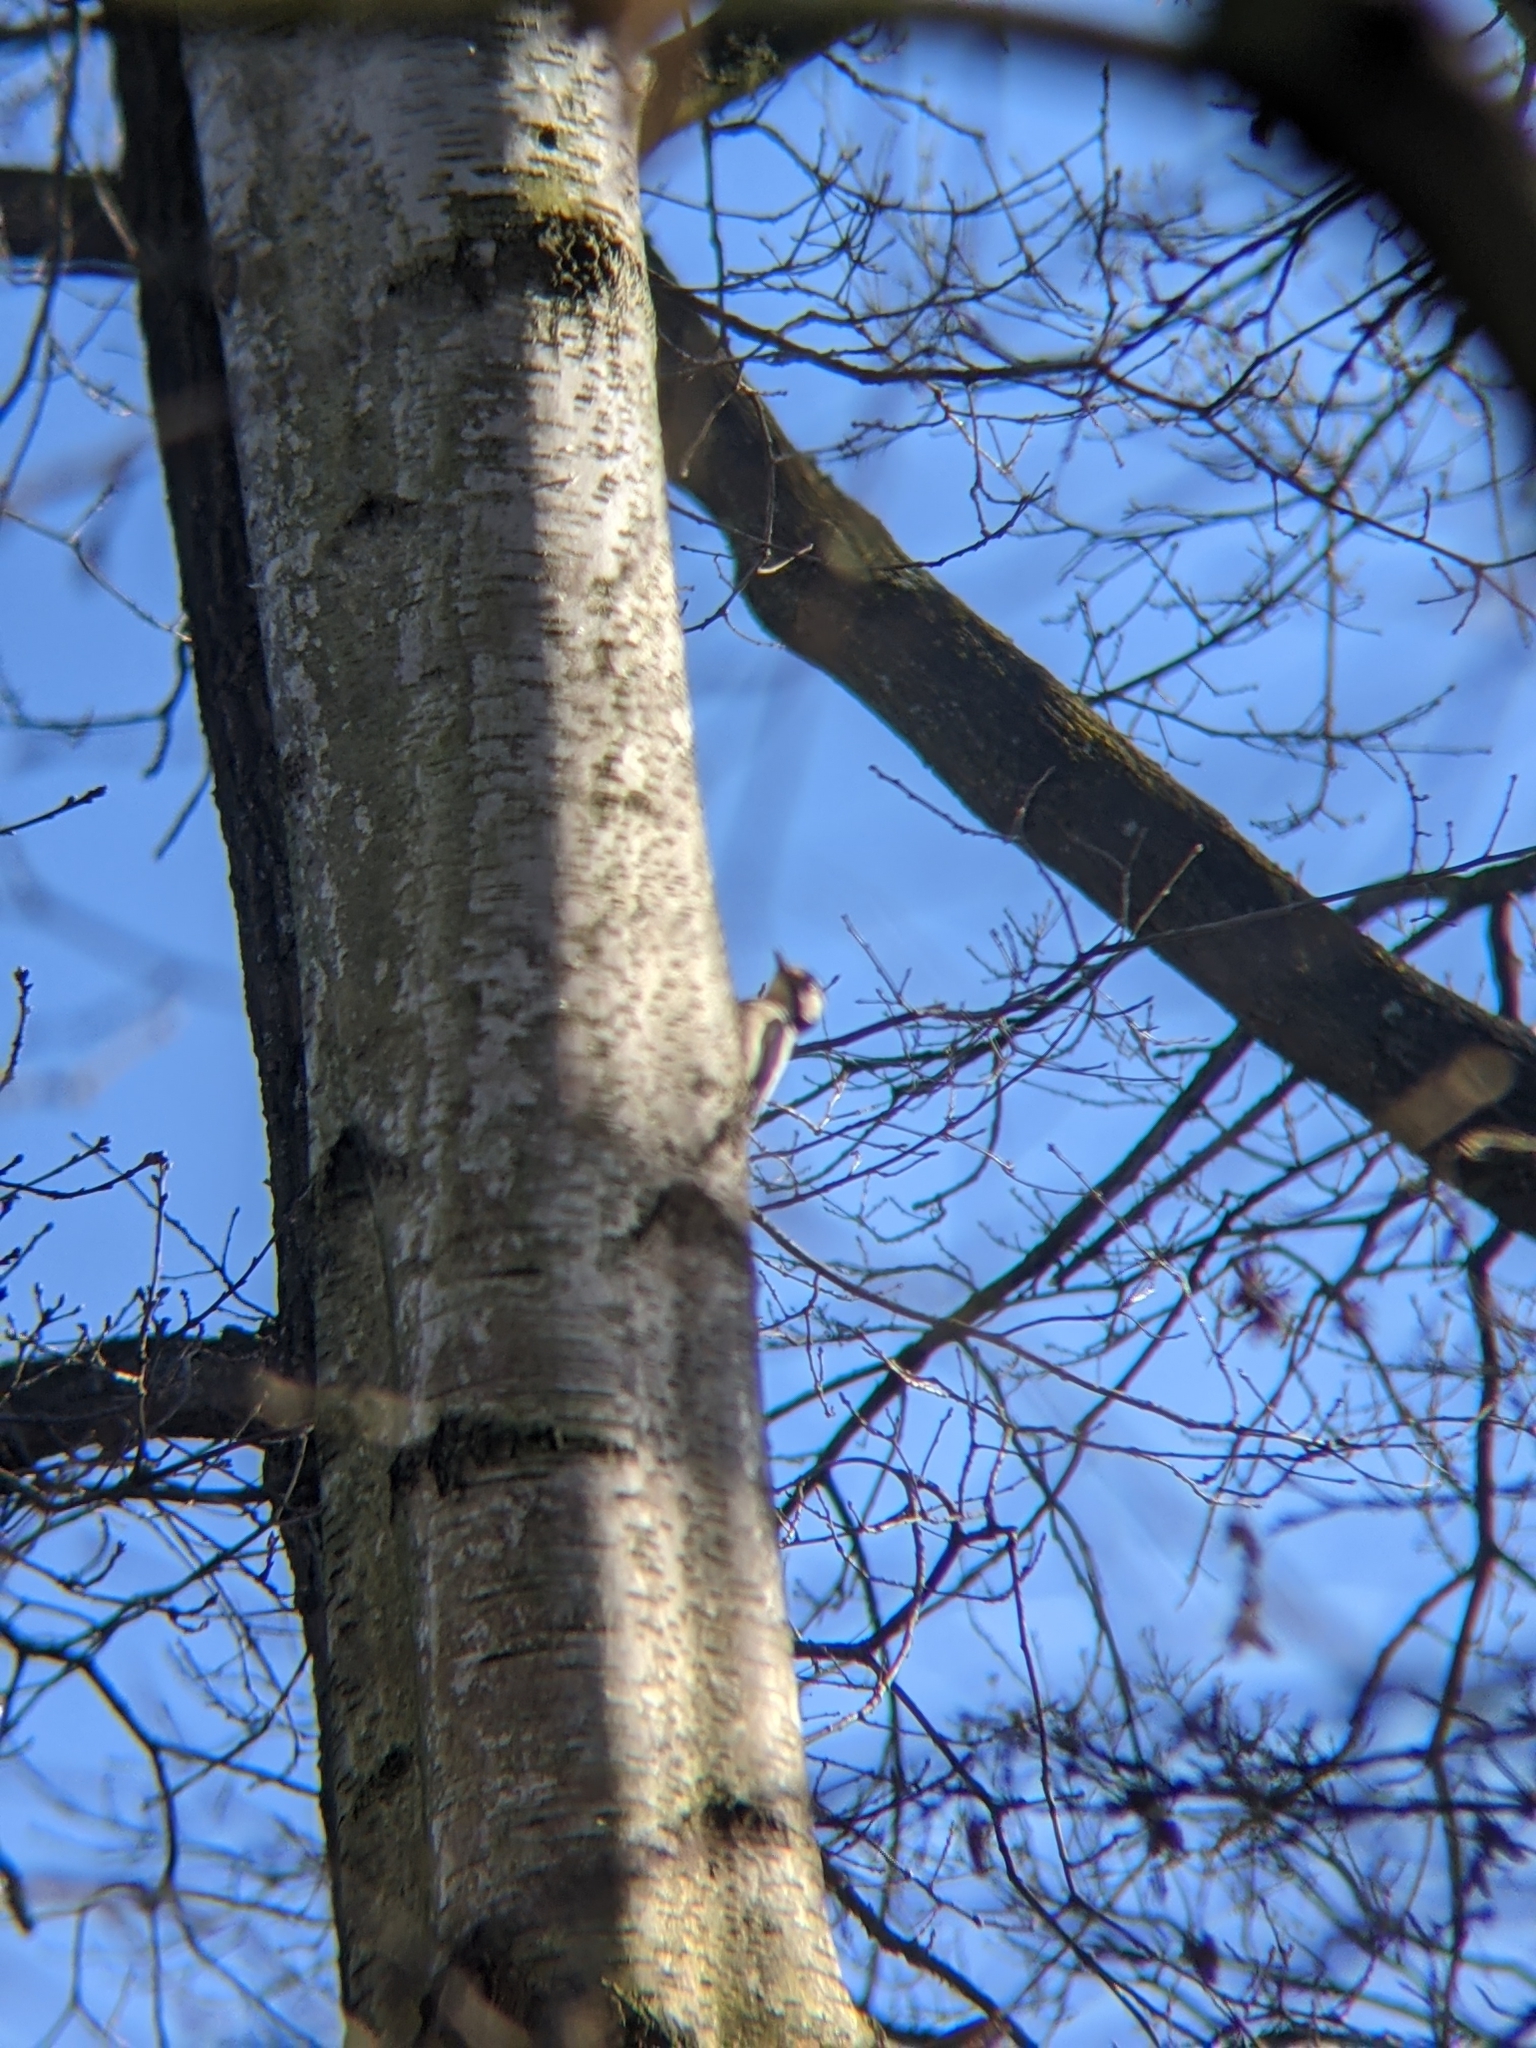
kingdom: Animalia
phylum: Chordata
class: Aves
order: Piciformes
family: Picidae
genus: Dendrocopos
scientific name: Dendrocopos major
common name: Great spotted woodpecker
